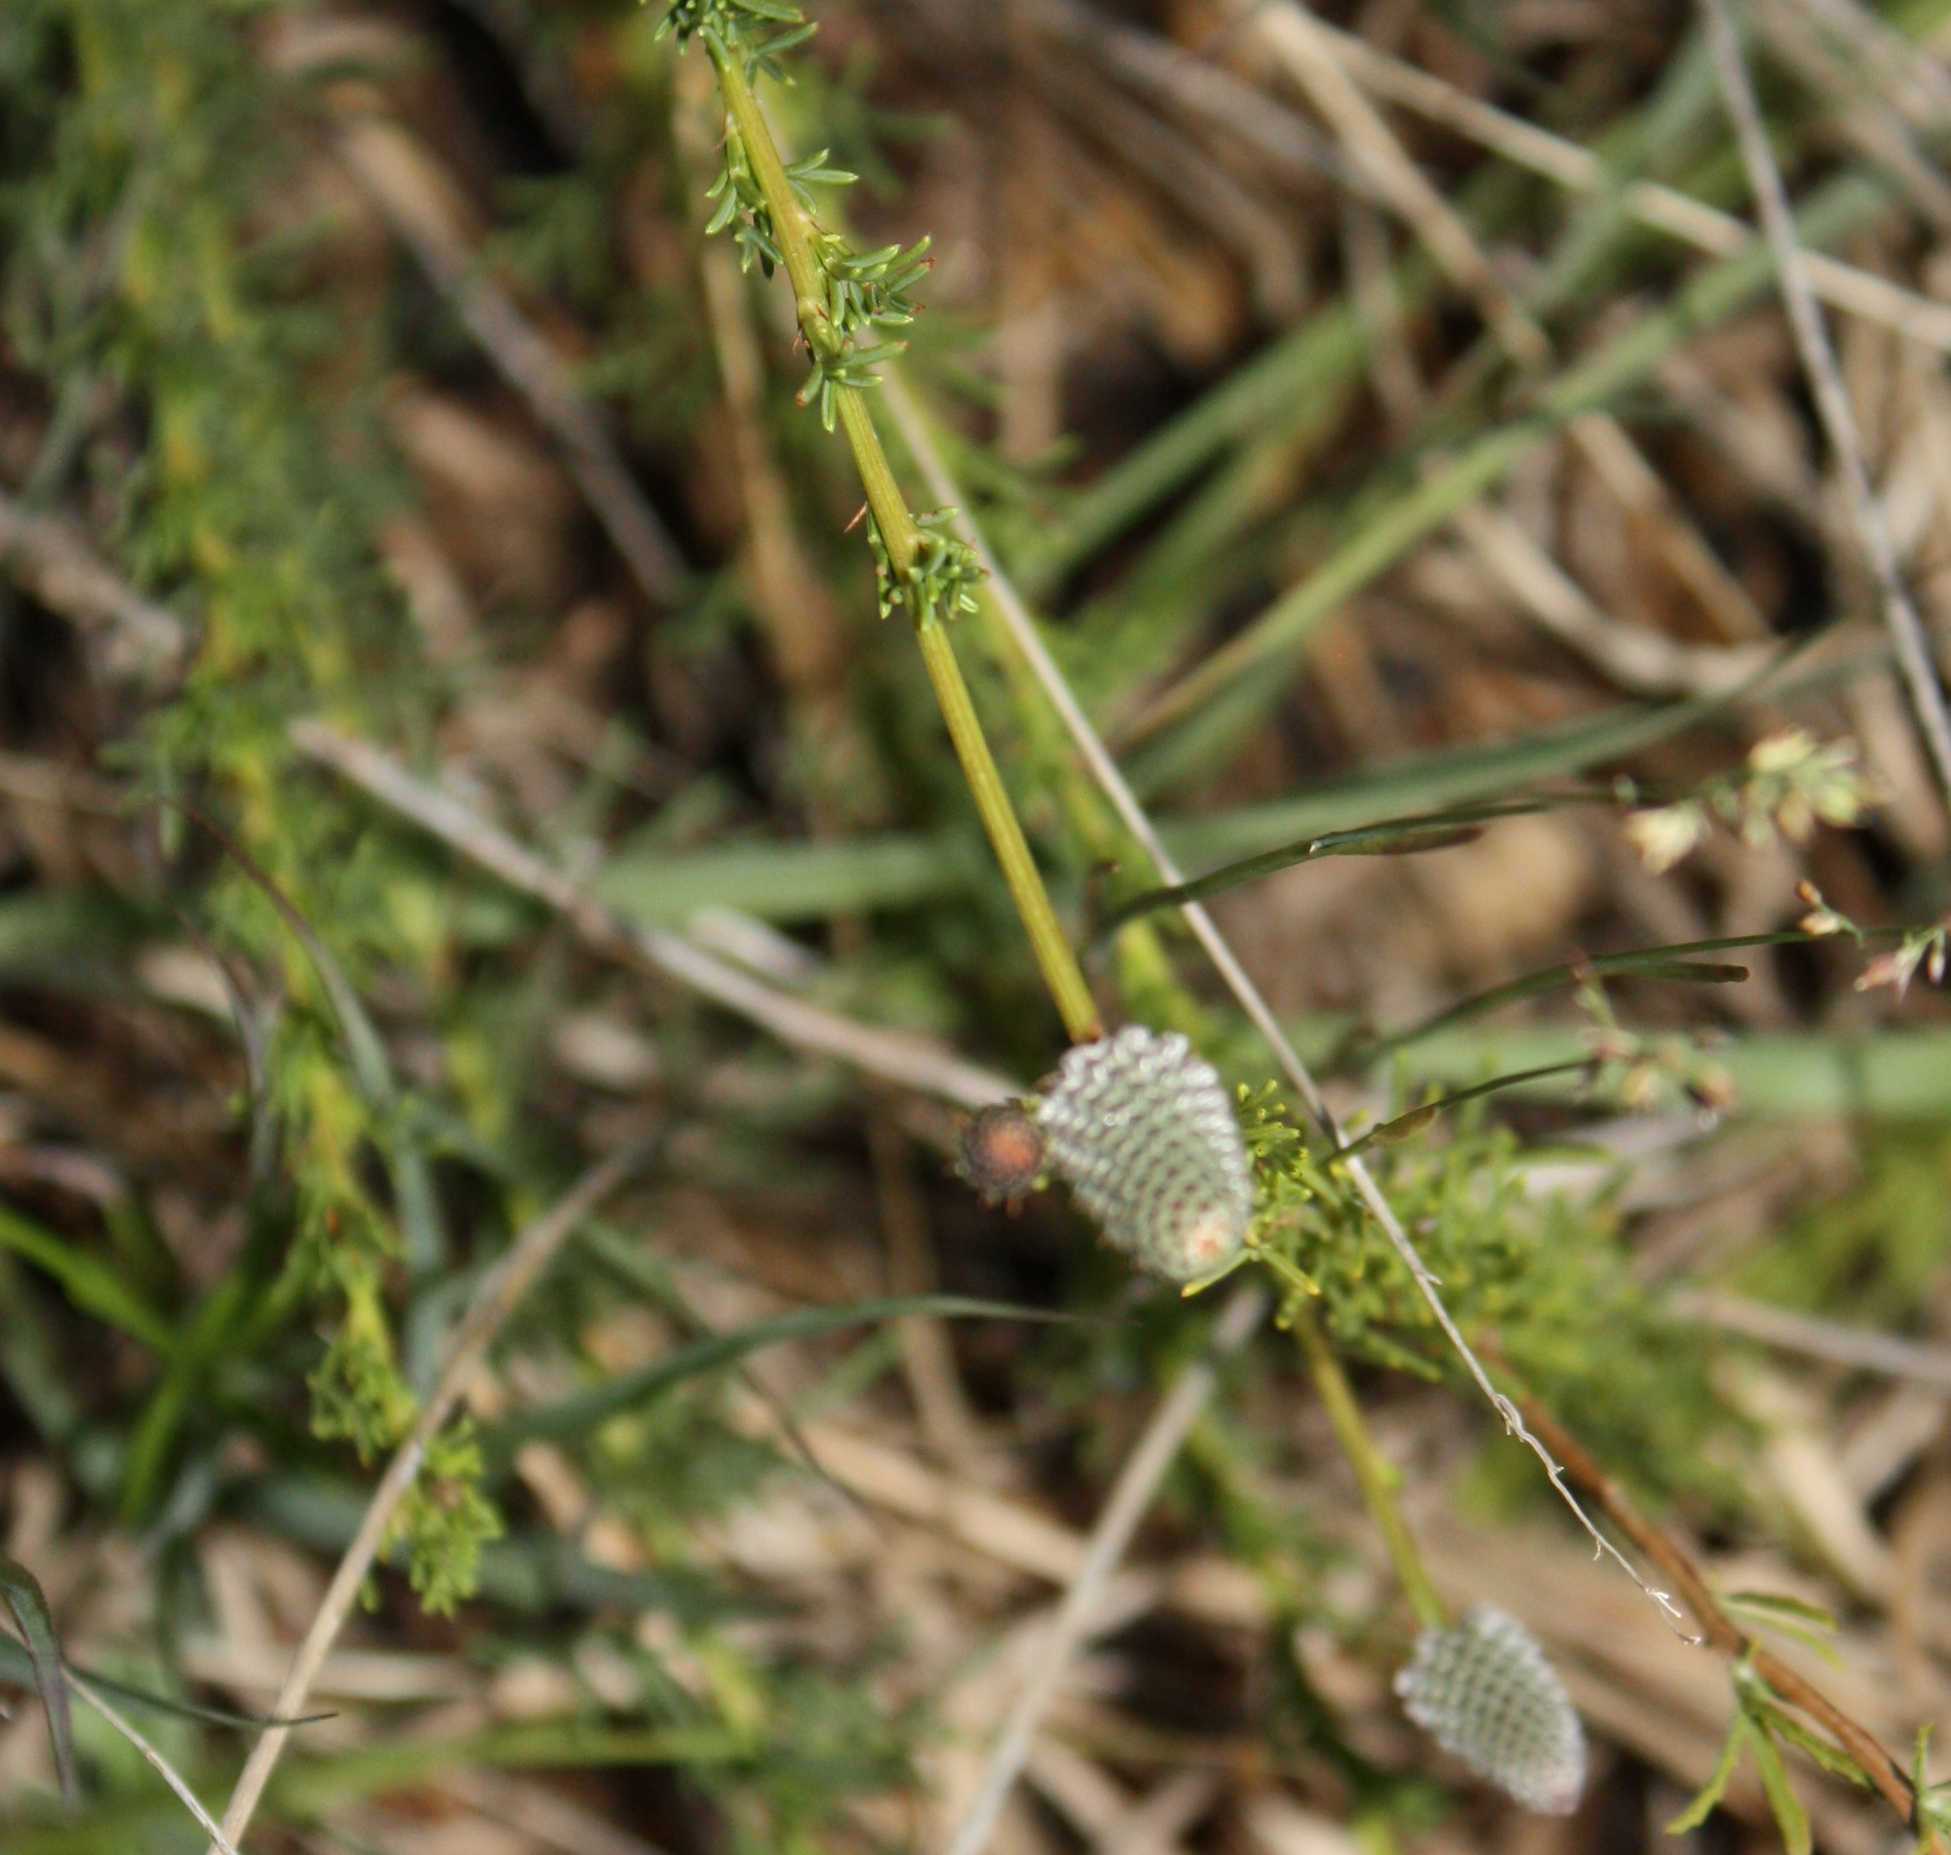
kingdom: Plantae
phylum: Tracheophyta
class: Magnoliopsida
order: Fabales
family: Fabaceae
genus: Dalea
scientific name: Dalea purpurea
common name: Purple prairie-clover
